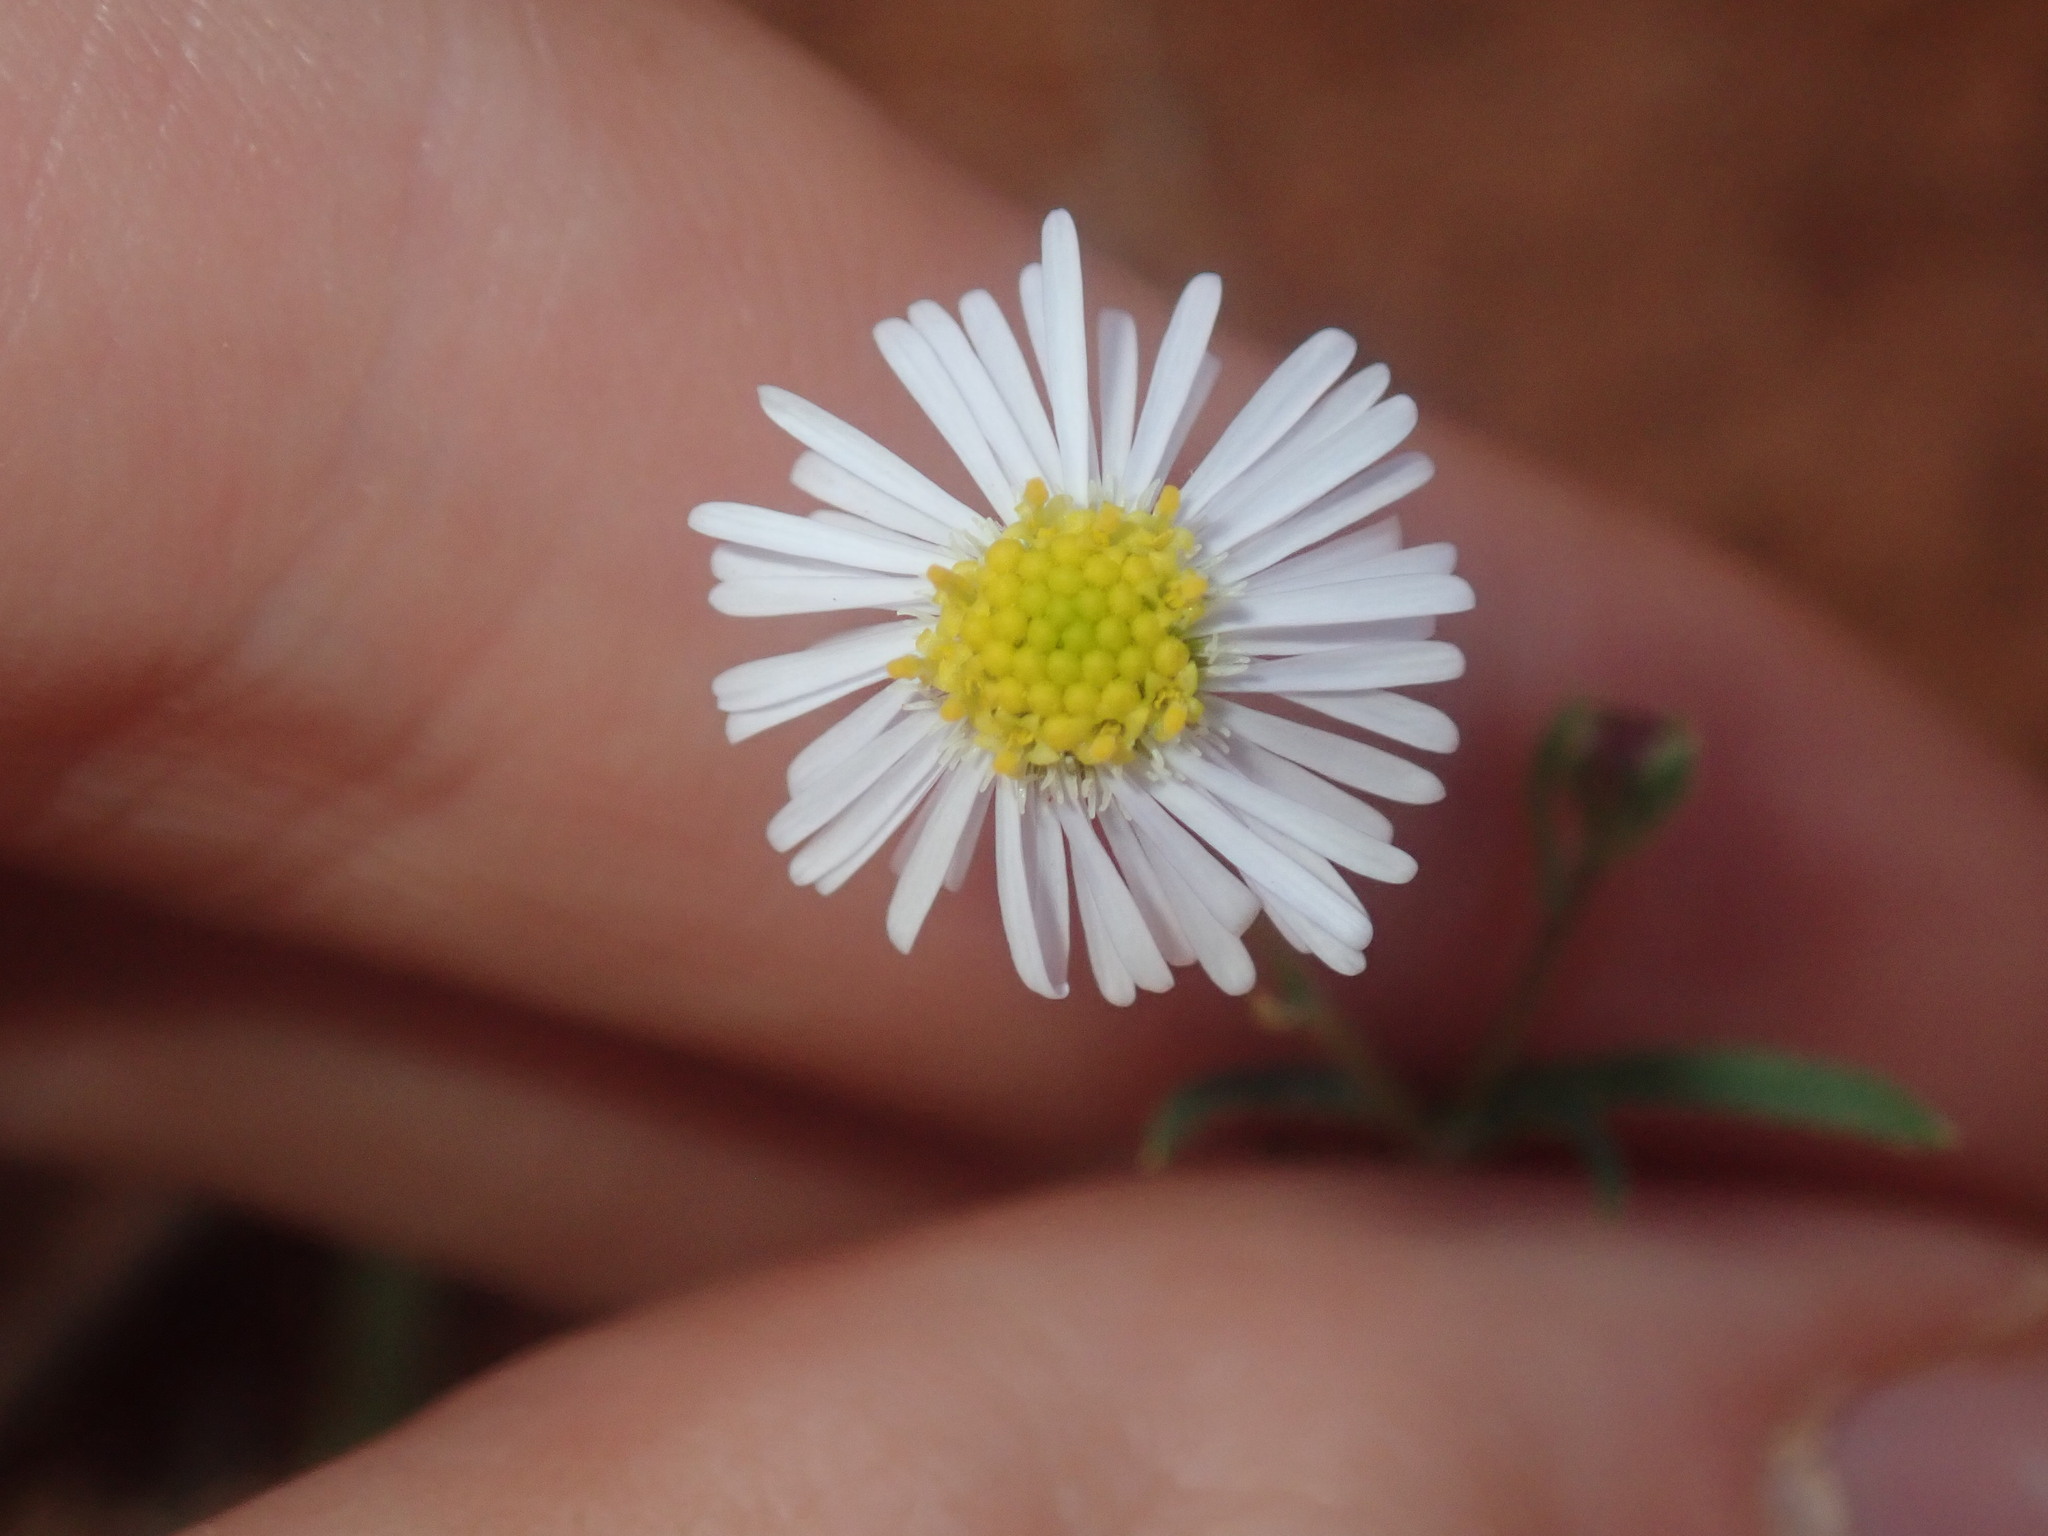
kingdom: Plantae
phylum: Tracheophyta
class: Magnoliopsida
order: Asterales
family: Asteraceae
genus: Brachyscome
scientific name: Brachyscome ciliaris
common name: Variable daisy
